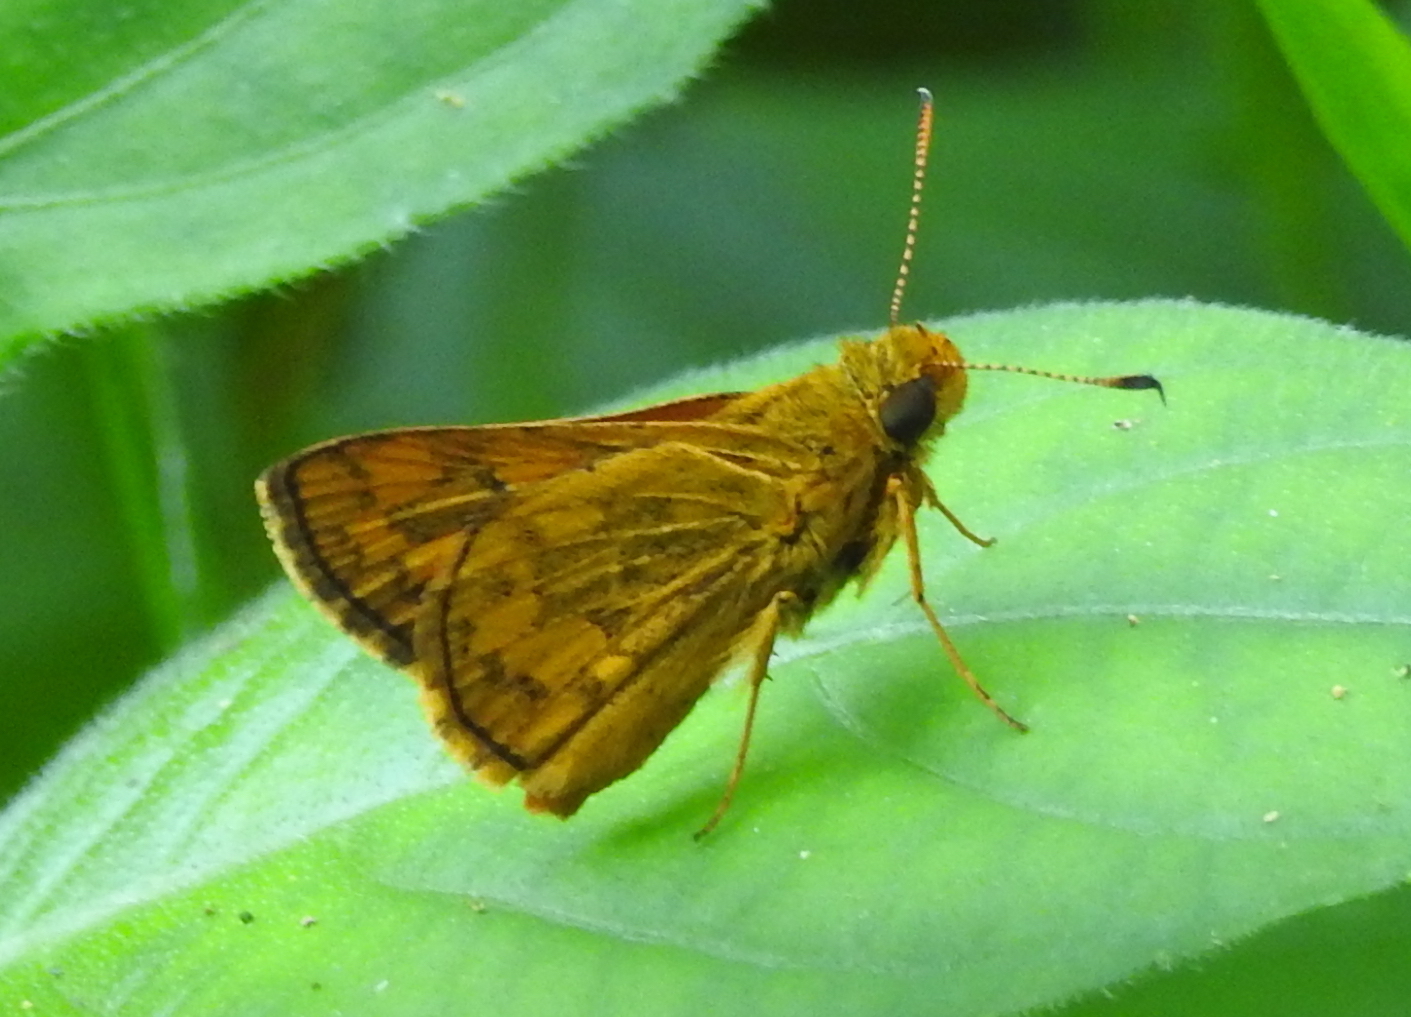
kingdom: Animalia
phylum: Arthropoda
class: Insecta
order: Lepidoptera
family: Hesperiidae
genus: Potanthus
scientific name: Potanthus omaha
